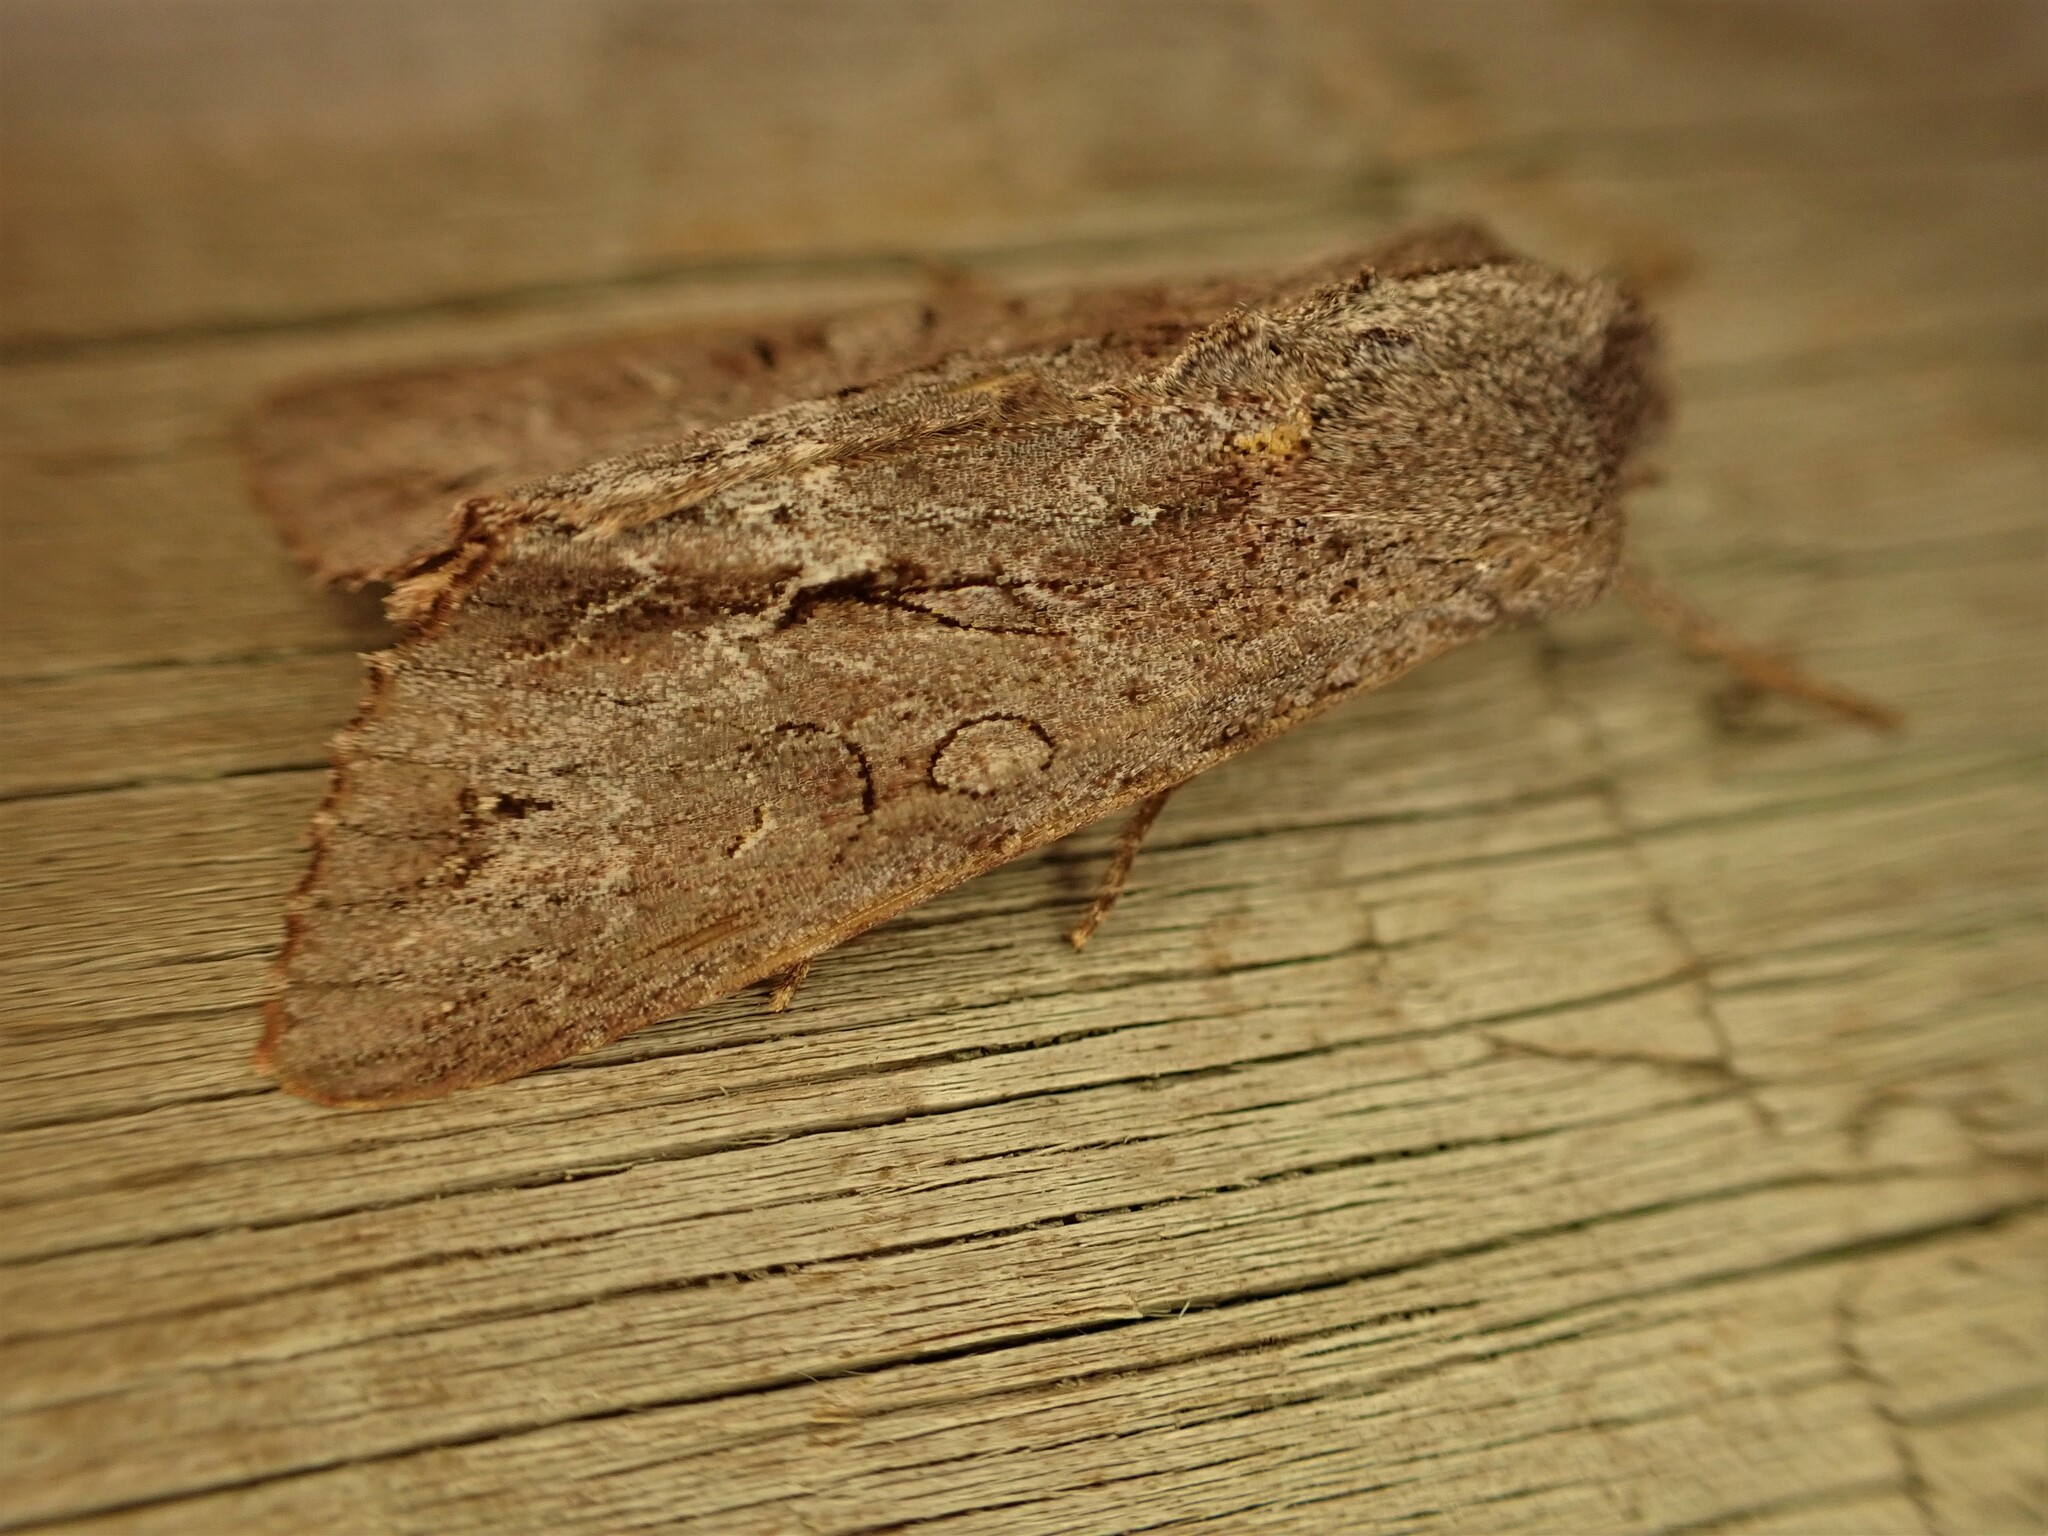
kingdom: Animalia
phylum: Arthropoda
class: Insecta
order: Lepidoptera
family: Noctuidae
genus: Ichneutica
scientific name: Ichneutica
